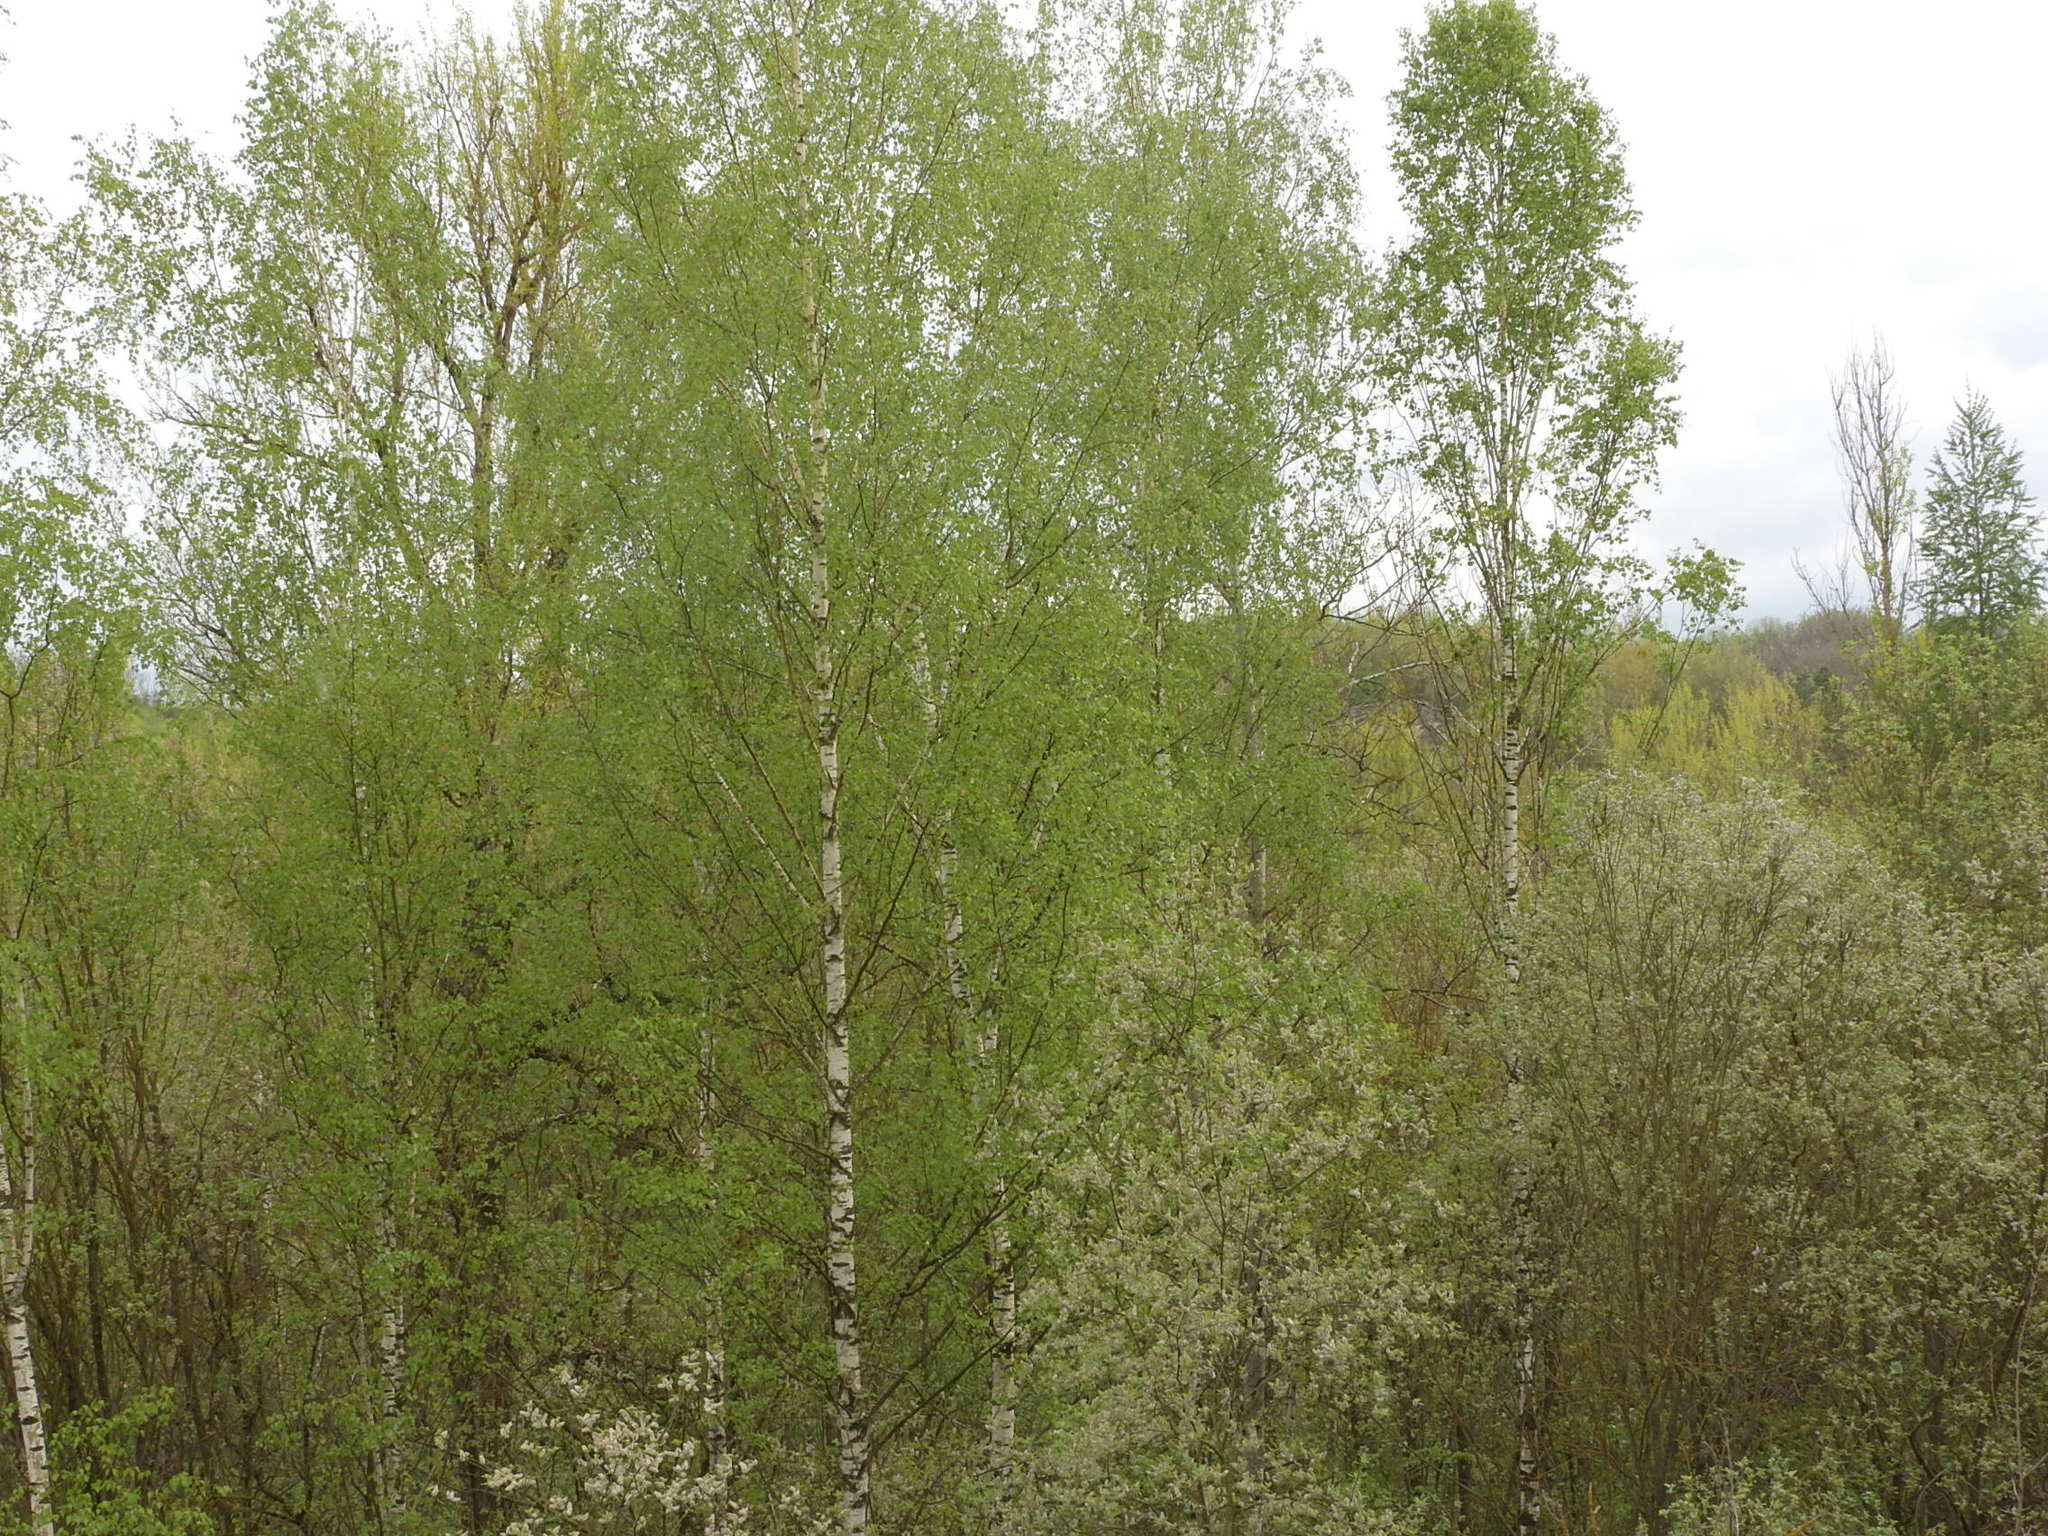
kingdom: Plantae
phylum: Tracheophyta
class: Magnoliopsida
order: Fagales
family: Betulaceae
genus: Betula
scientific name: Betula pendula
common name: Silver birch
